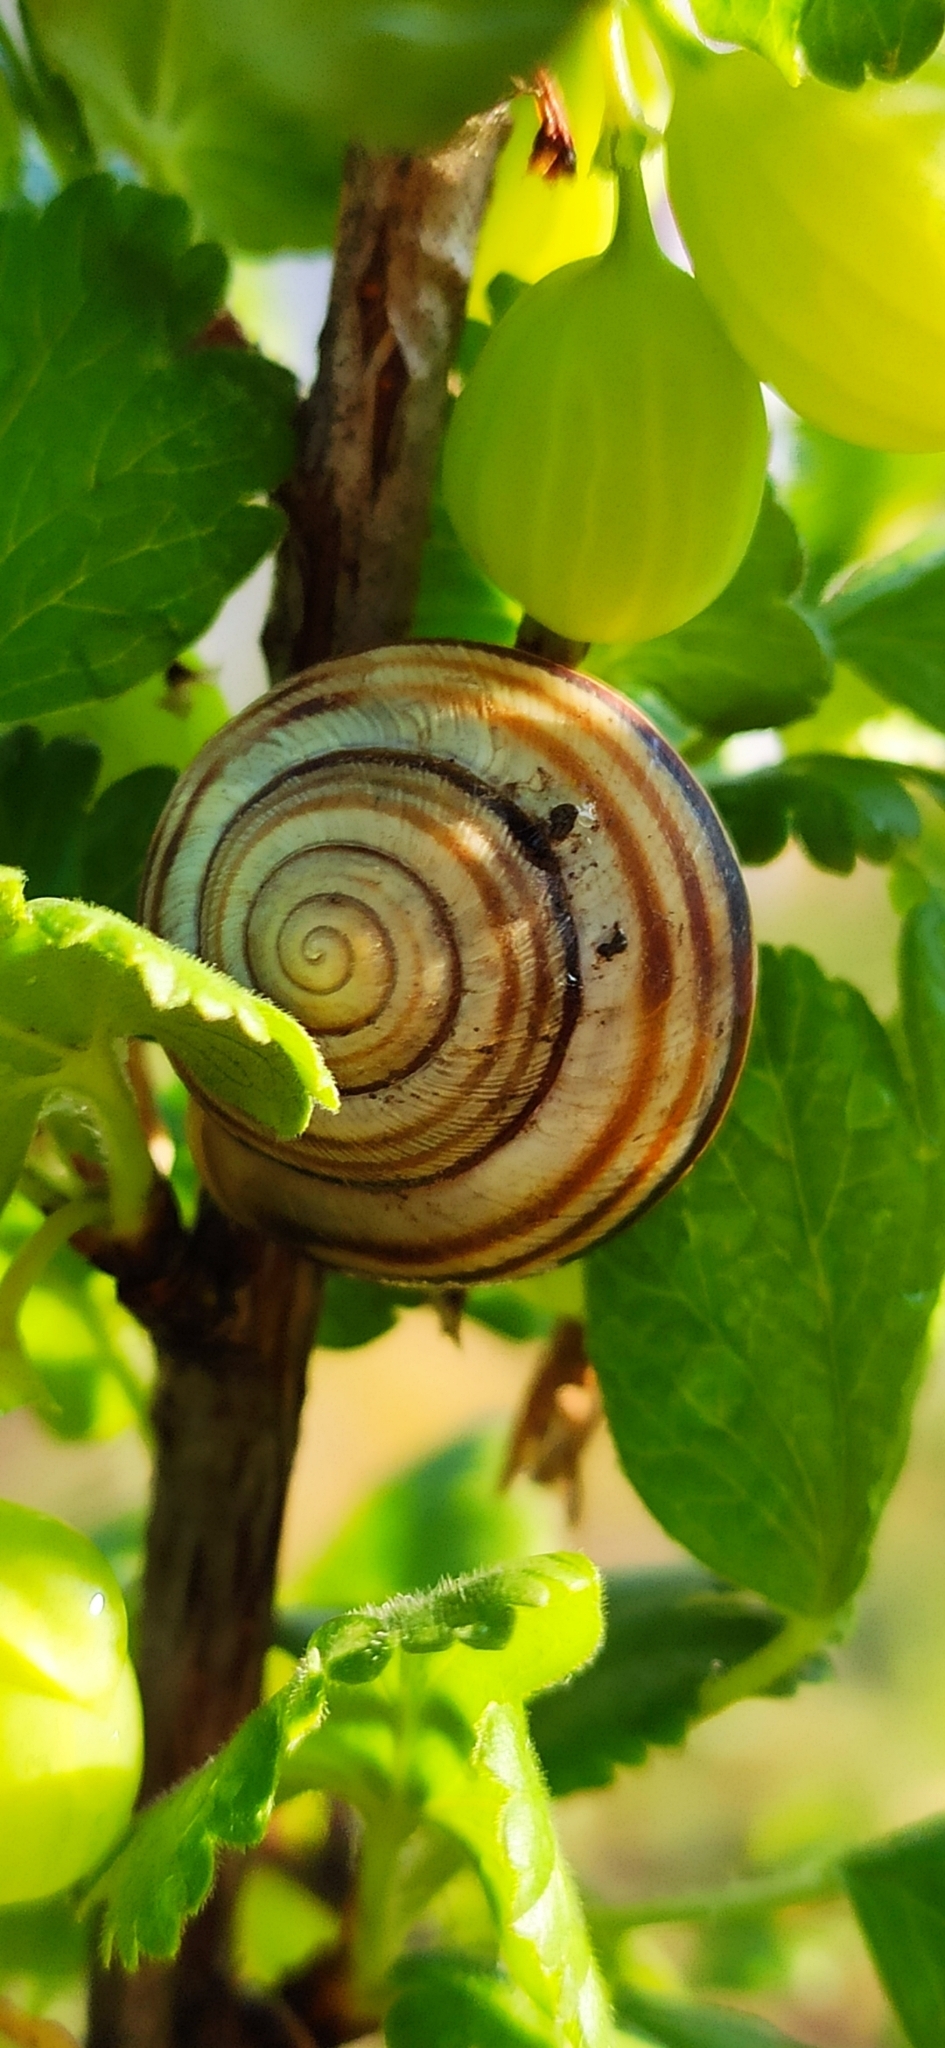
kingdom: Animalia
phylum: Mollusca
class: Gastropoda
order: Stylommatophora
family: Helicidae
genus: Caucasotachea
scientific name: Caucasotachea vindobonensis
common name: European helicid land snail
